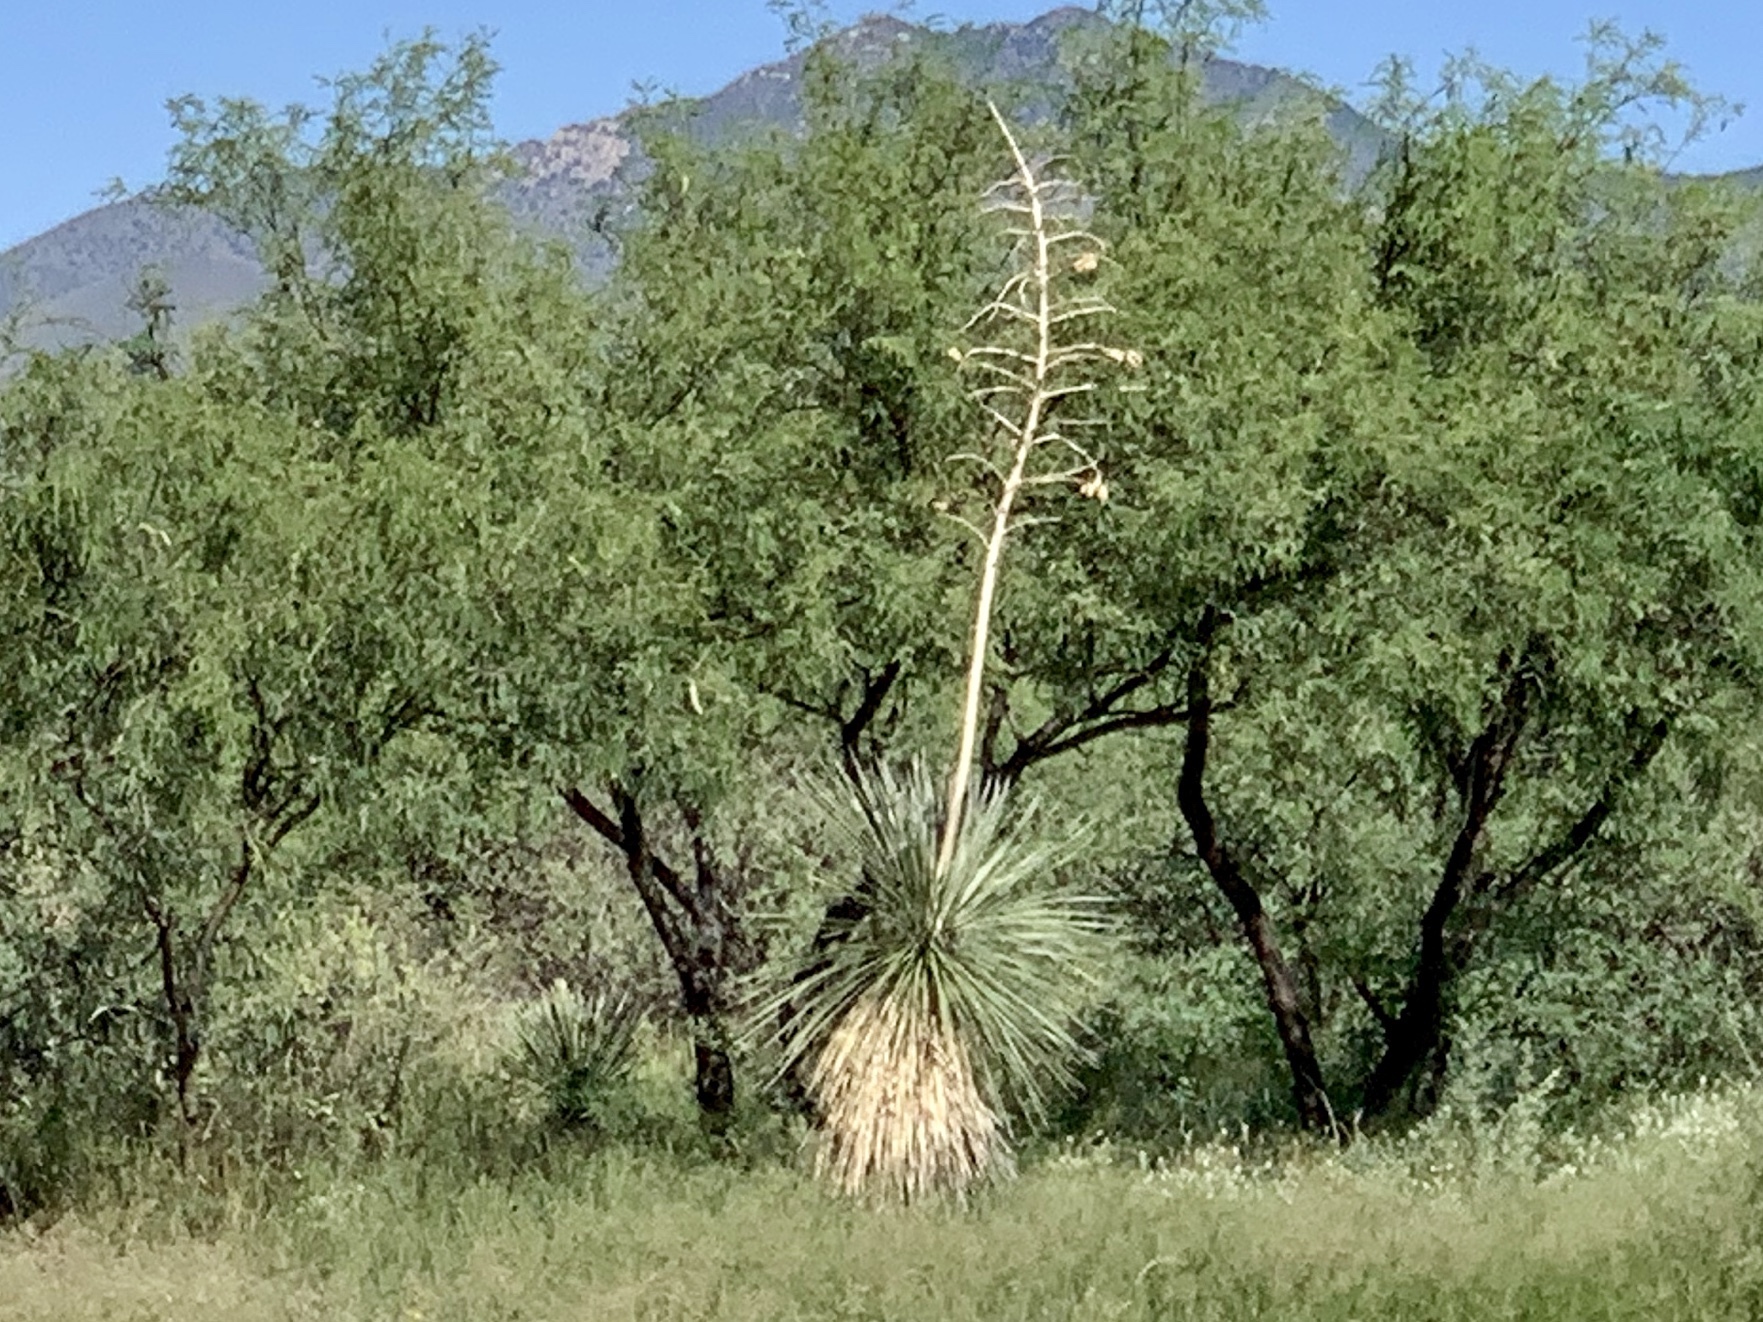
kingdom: Plantae
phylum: Tracheophyta
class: Liliopsida
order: Asparagales
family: Asparagaceae
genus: Yucca
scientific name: Yucca elata
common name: Palmella
